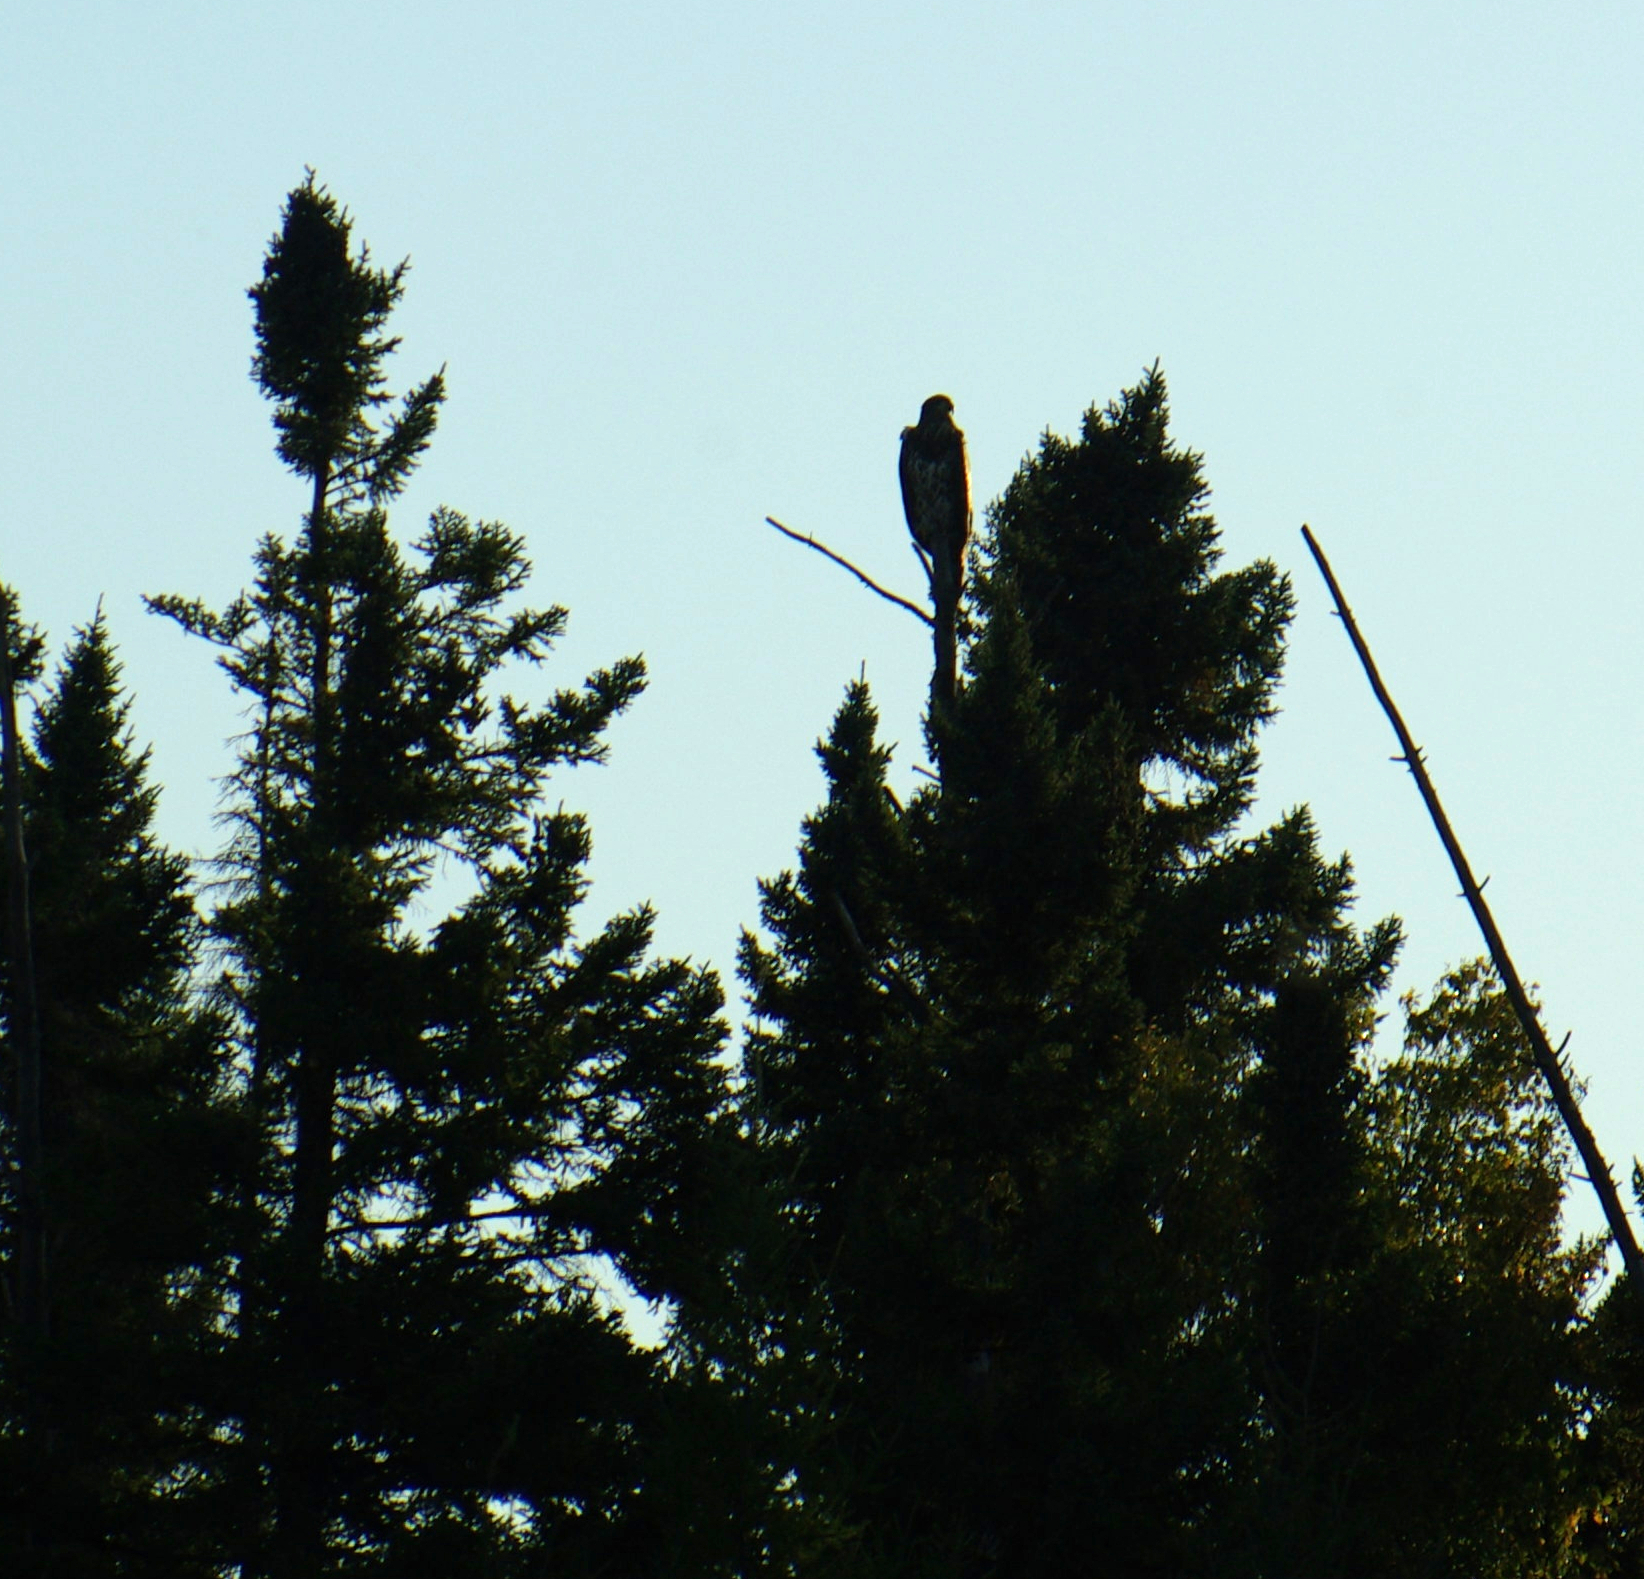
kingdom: Animalia
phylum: Chordata
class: Aves
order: Accipitriformes
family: Accipitridae
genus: Haliaeetus
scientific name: Haliaeetus leucocephalus
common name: Bald eagle
